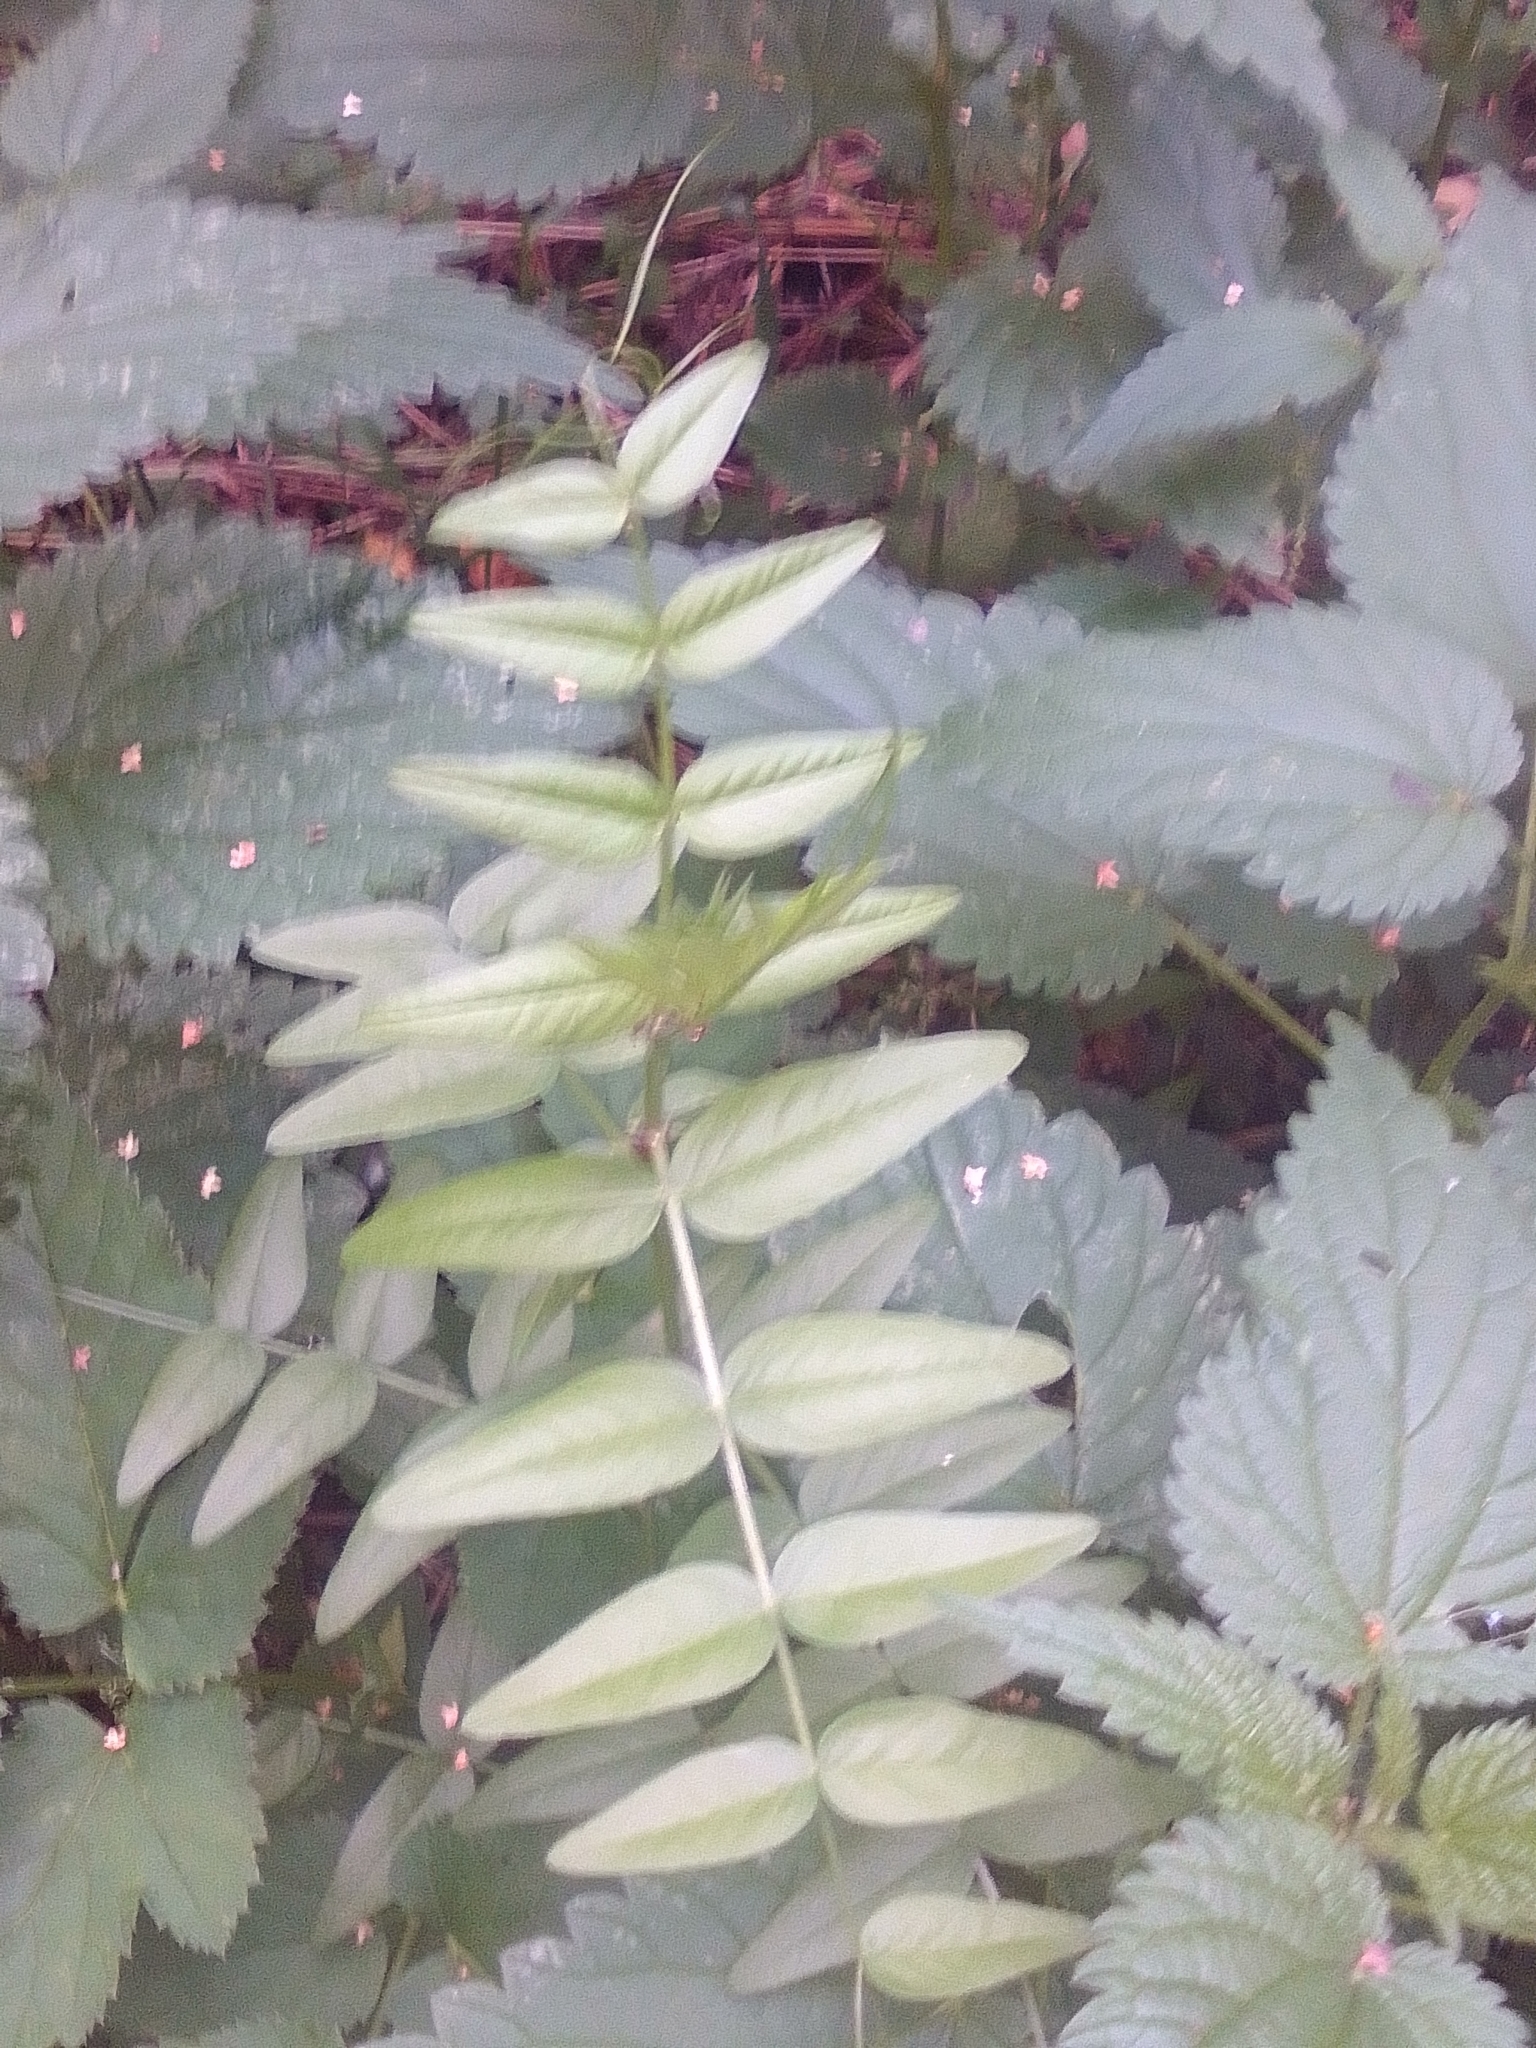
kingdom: Plantae
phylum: Tracheophyta
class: Magnoliopsida
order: Fabales
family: Fabaceae
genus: Vicia
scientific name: Vicia sepium
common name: Bush vetch
